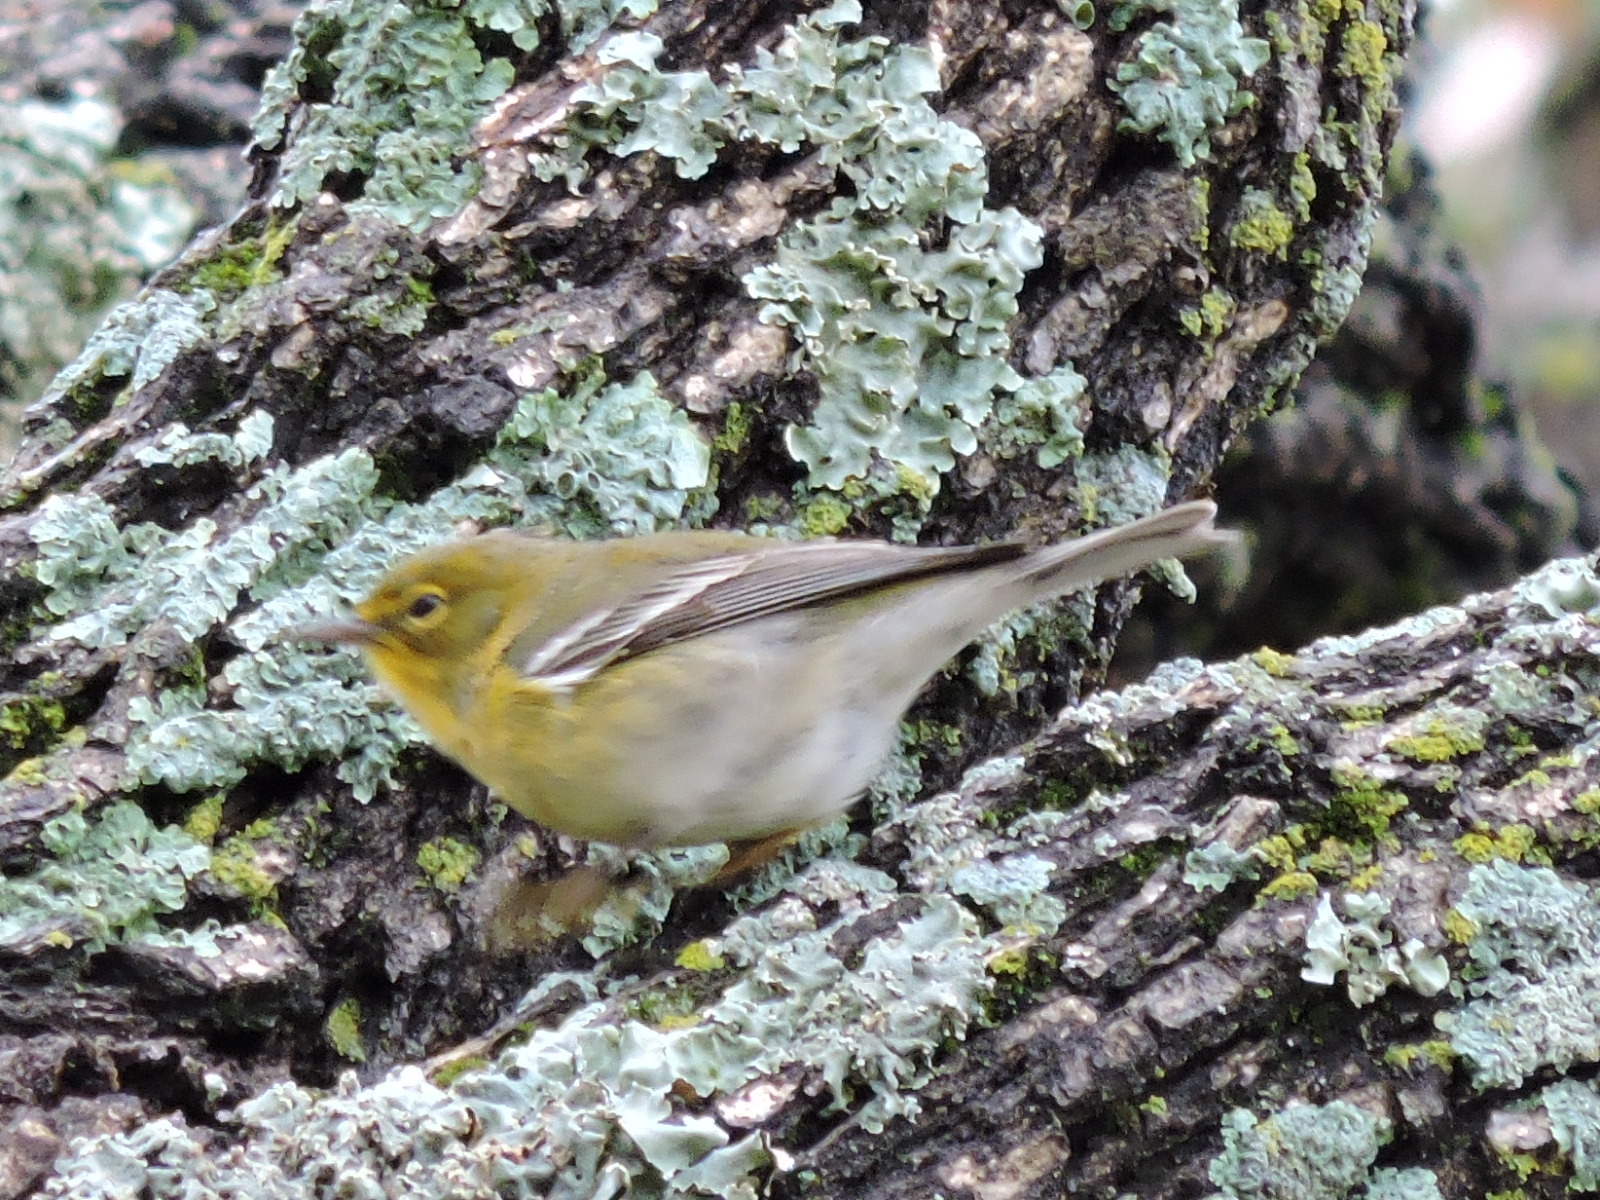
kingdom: Animalia
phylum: Chordata
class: Aves
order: Passeriformes
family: Parulidae
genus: Setophaga
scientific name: Setophaga pinus
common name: Pine warbler
